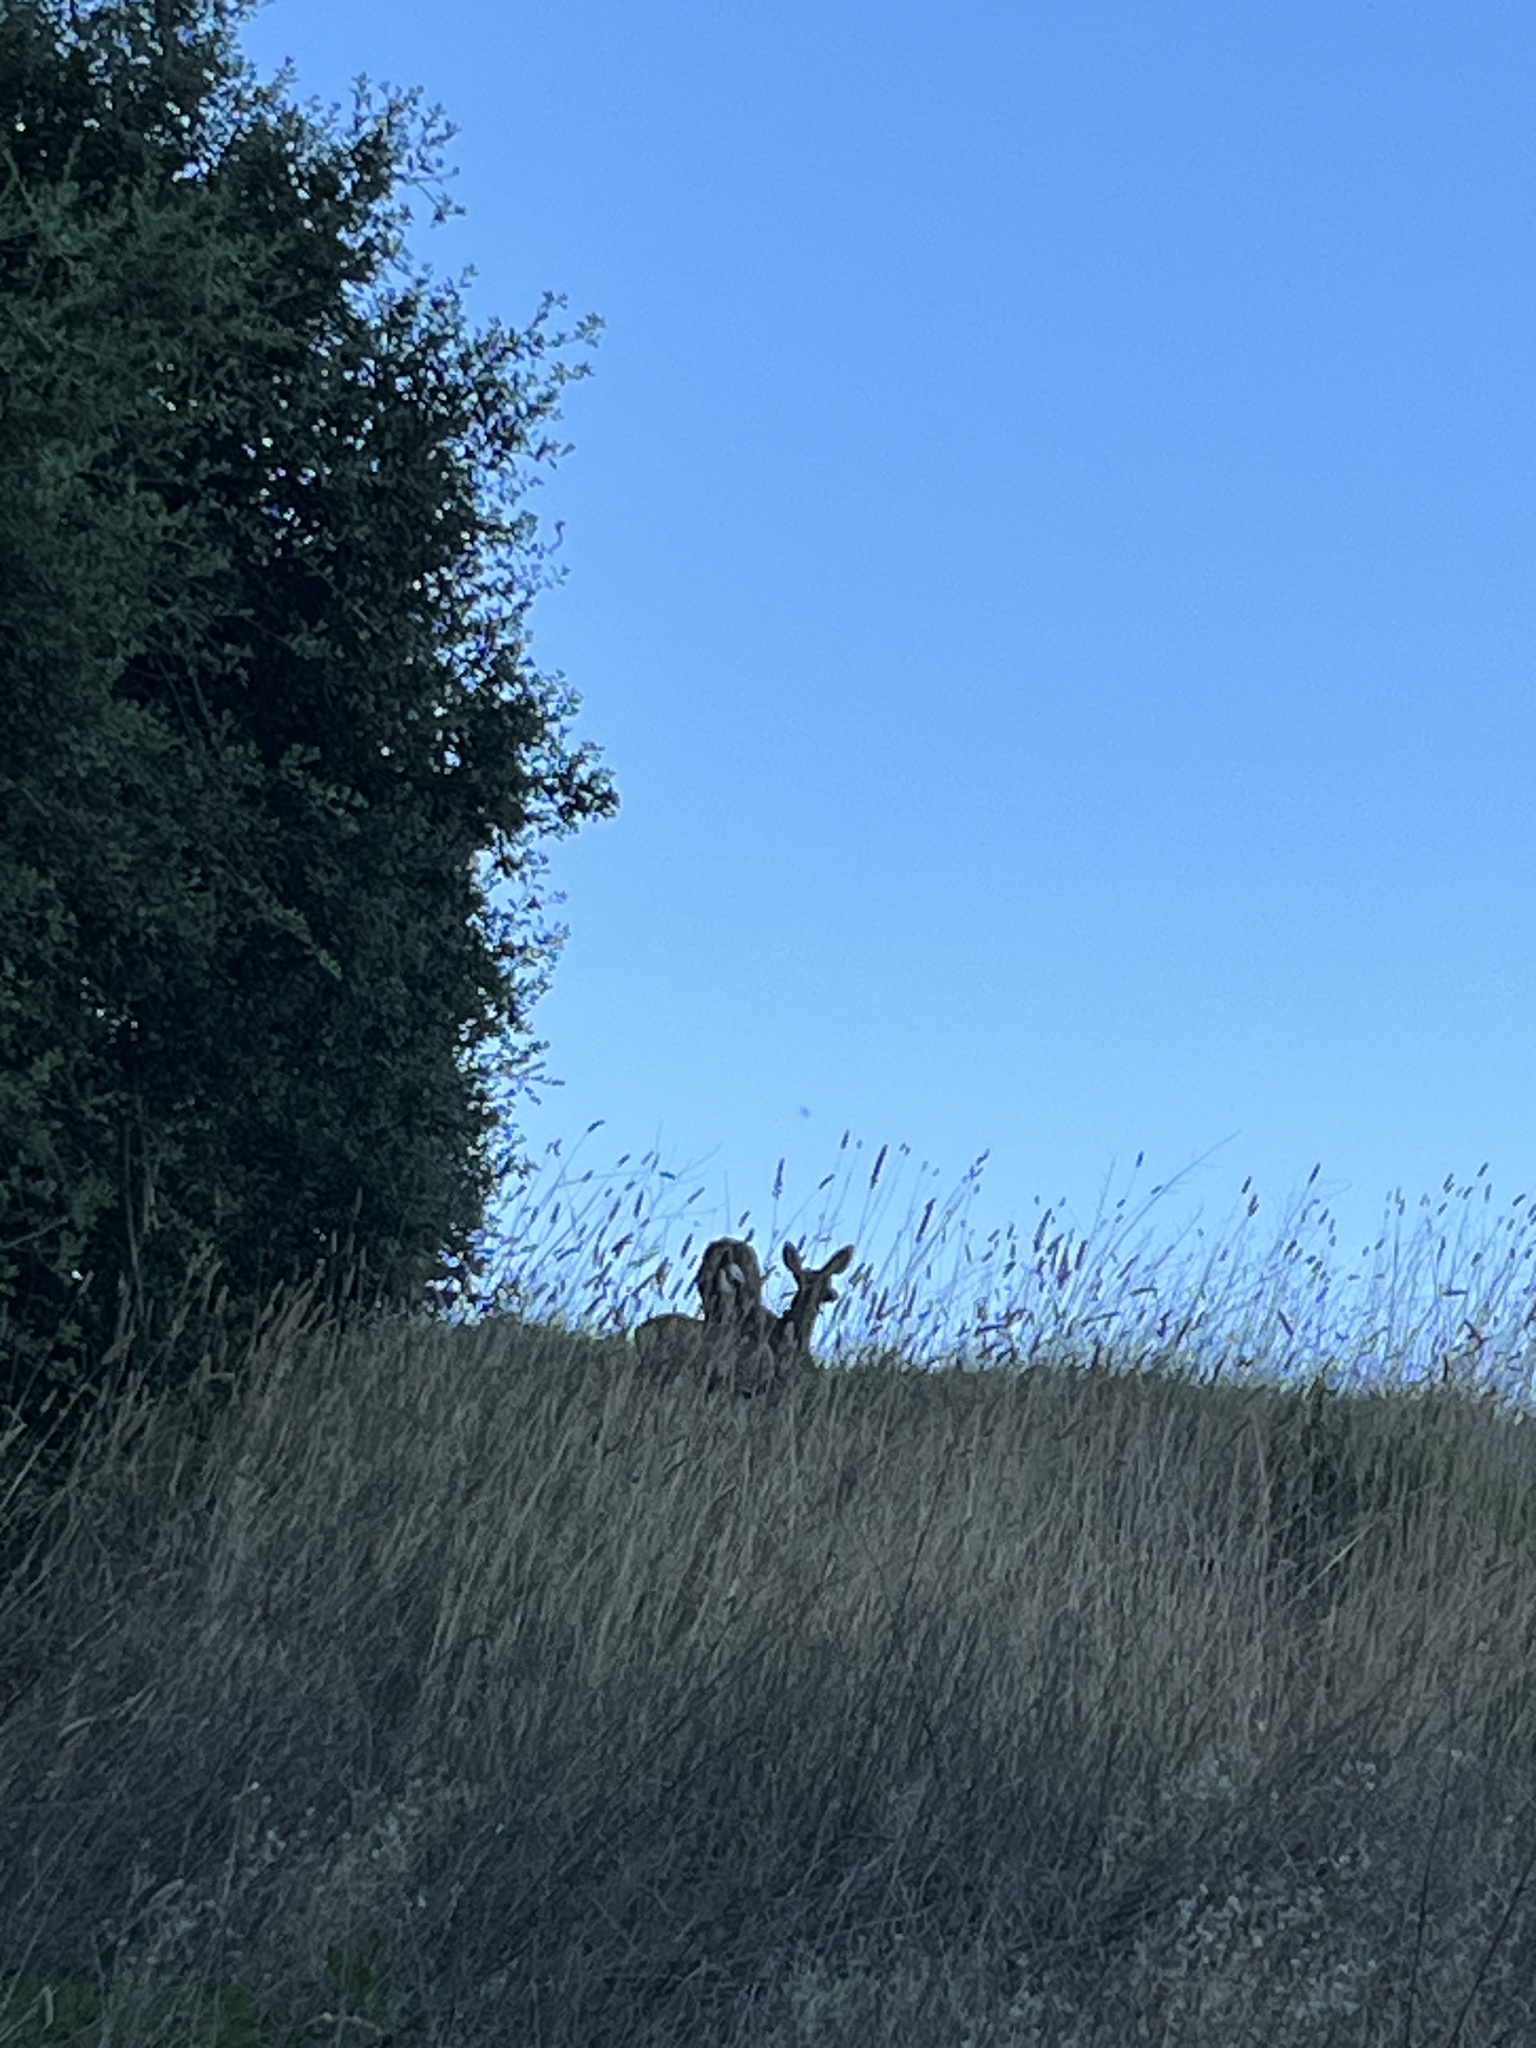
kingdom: Animalia
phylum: Chordata
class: Mammalia
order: Artiodactyla
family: Cervidae
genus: Odocoileus
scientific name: Odocoileus hemionus
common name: Mule deer
